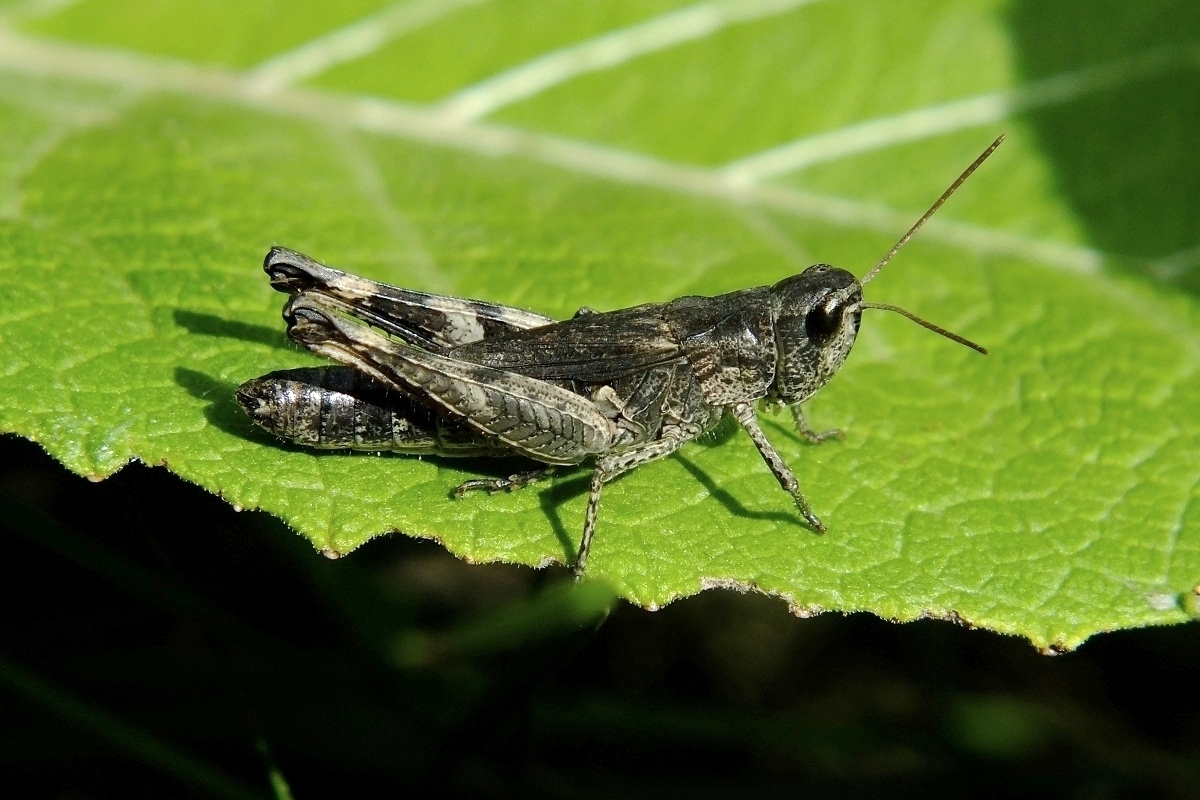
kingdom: Animalia
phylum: Arthropoda
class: Insecta
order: Orthoptera
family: Acrididae
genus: Chorthippus
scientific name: Chorthippus macrocerus
